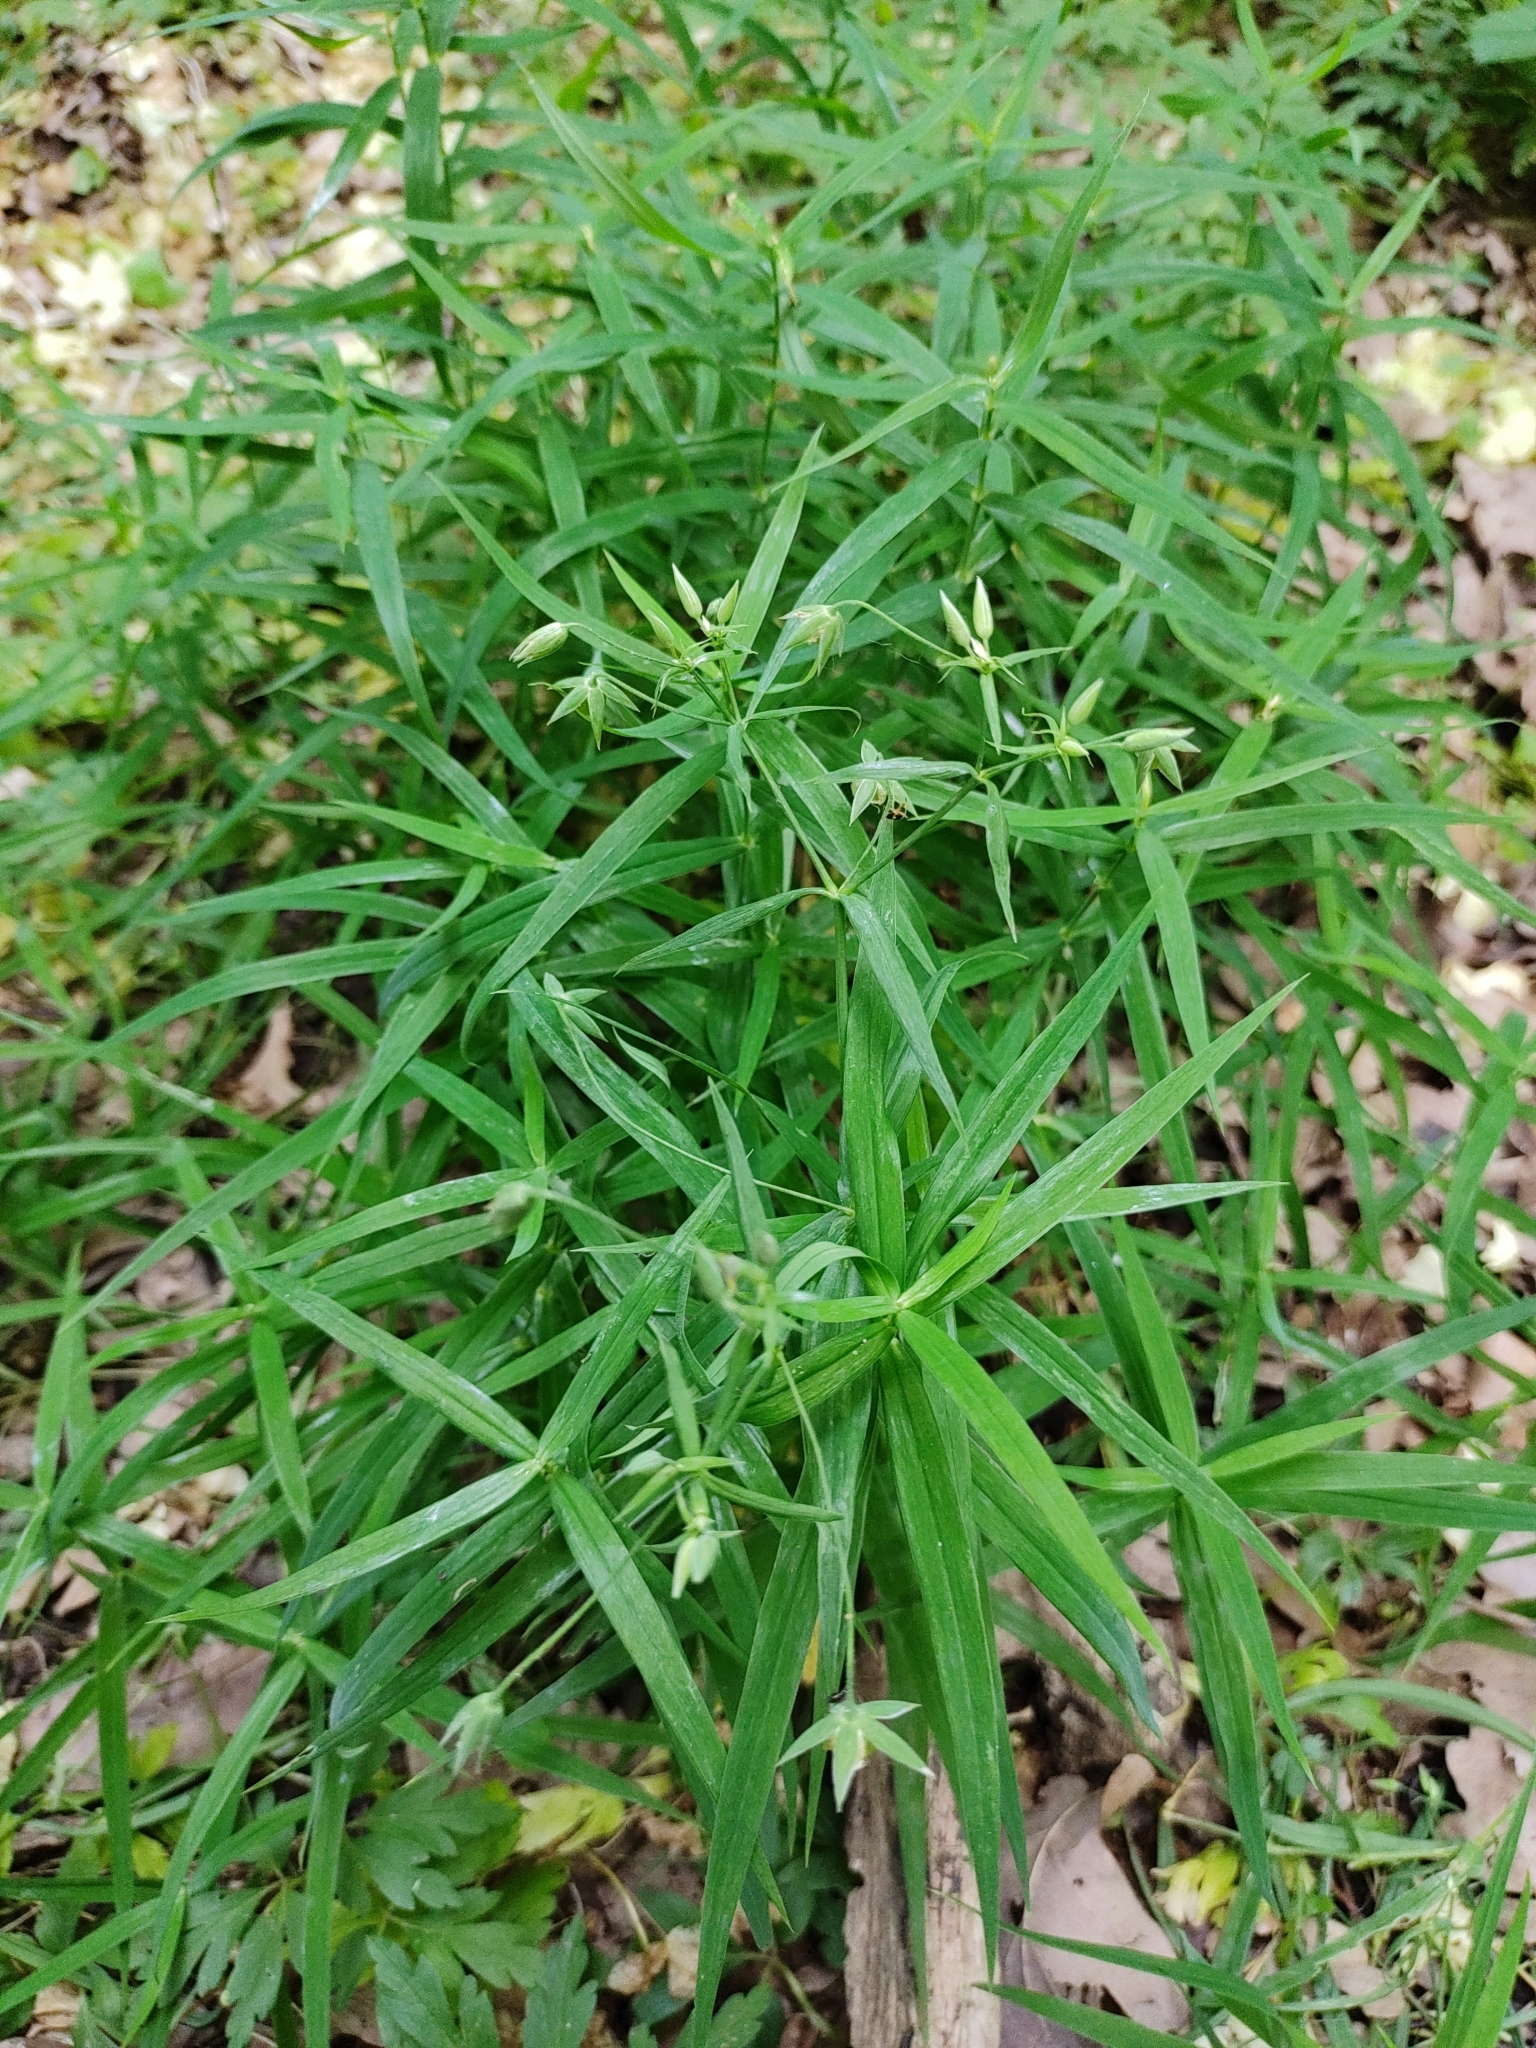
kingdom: Plantae
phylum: Tracheophyta
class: Magnoliopsida
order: Caryophyllales
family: Caryophyllaceae
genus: Rabelera
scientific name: Rabelera holostea
